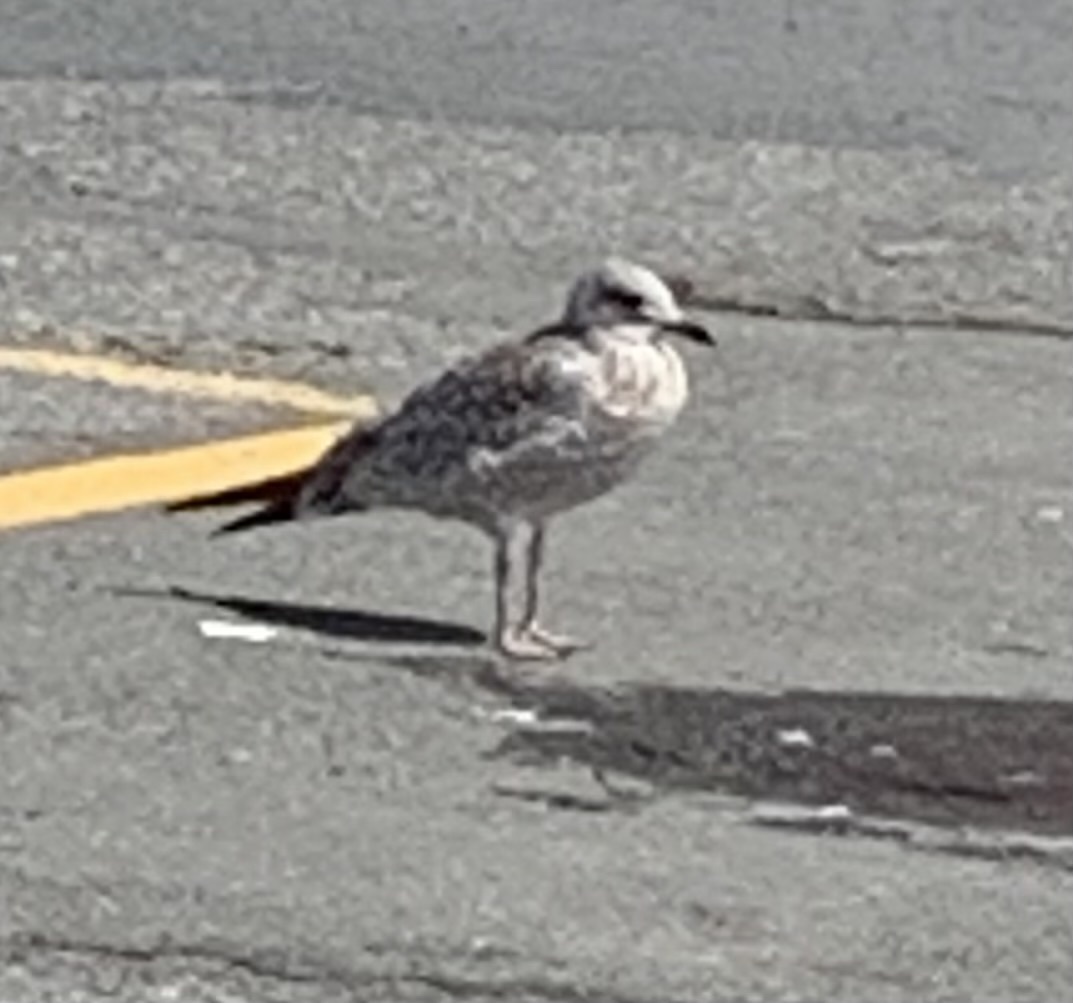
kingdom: Animalia
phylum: Chordata
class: Aves
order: Charadriiformes
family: Laridae
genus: Larus
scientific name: Larus delawarensis
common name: Ring-billed gull
